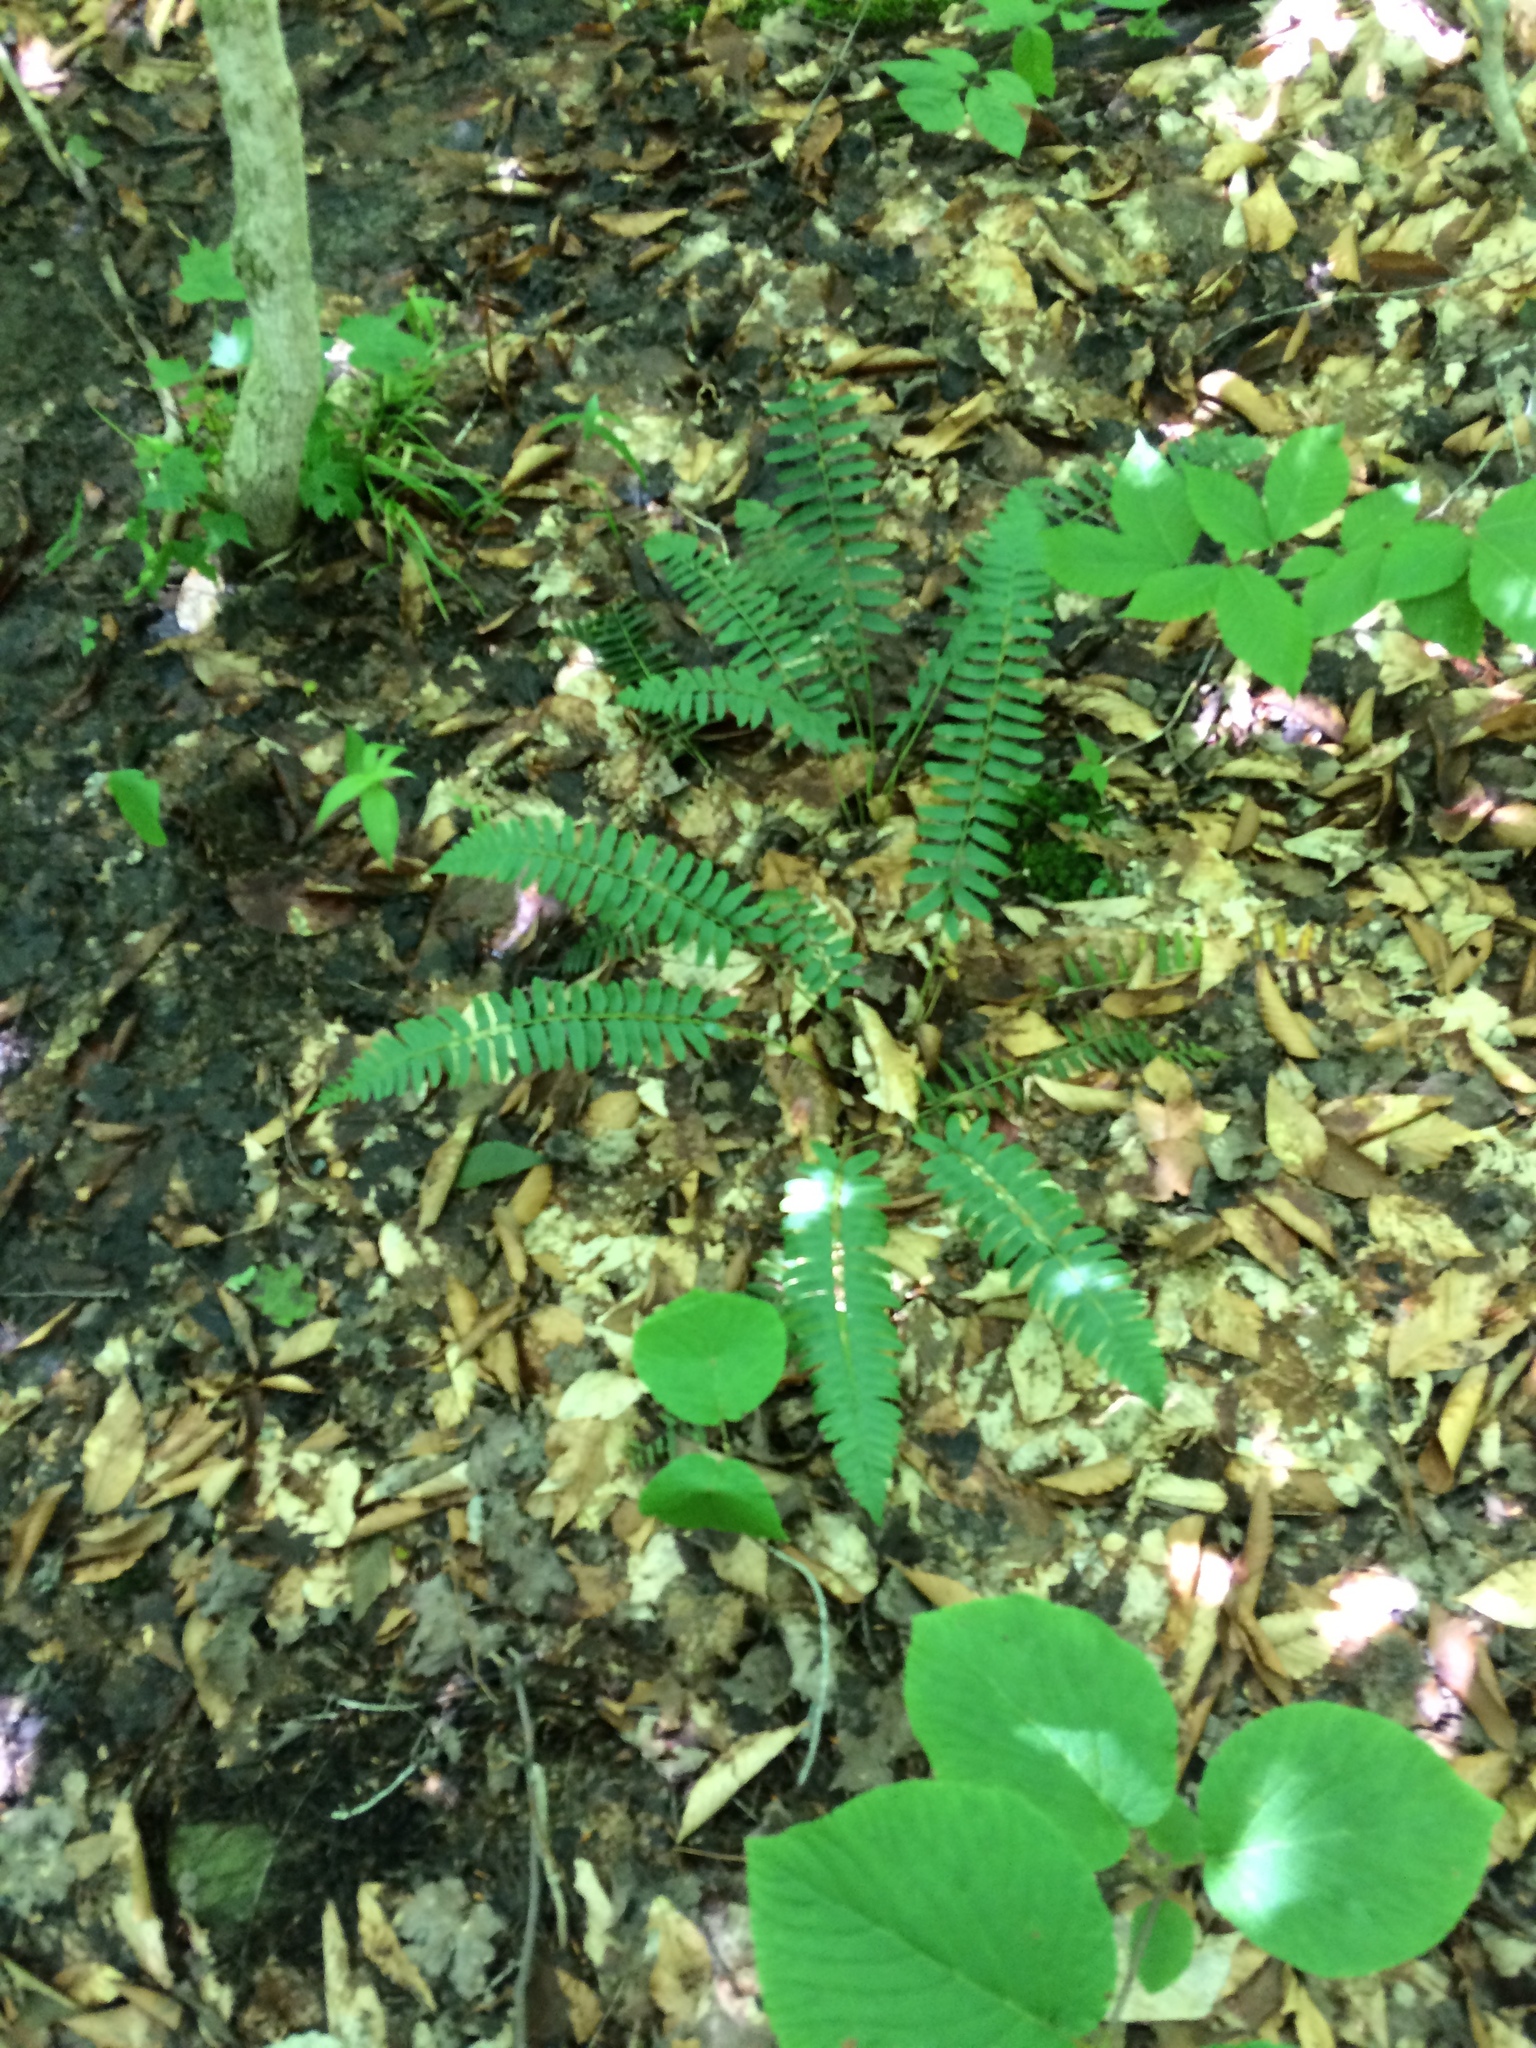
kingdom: Plantae
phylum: Tracheophyta
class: Polypodiopsida
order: Polypodiales
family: Dryopteridaceae
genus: Polystichum
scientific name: Polystichum acrostichoides
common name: Christmas fern
